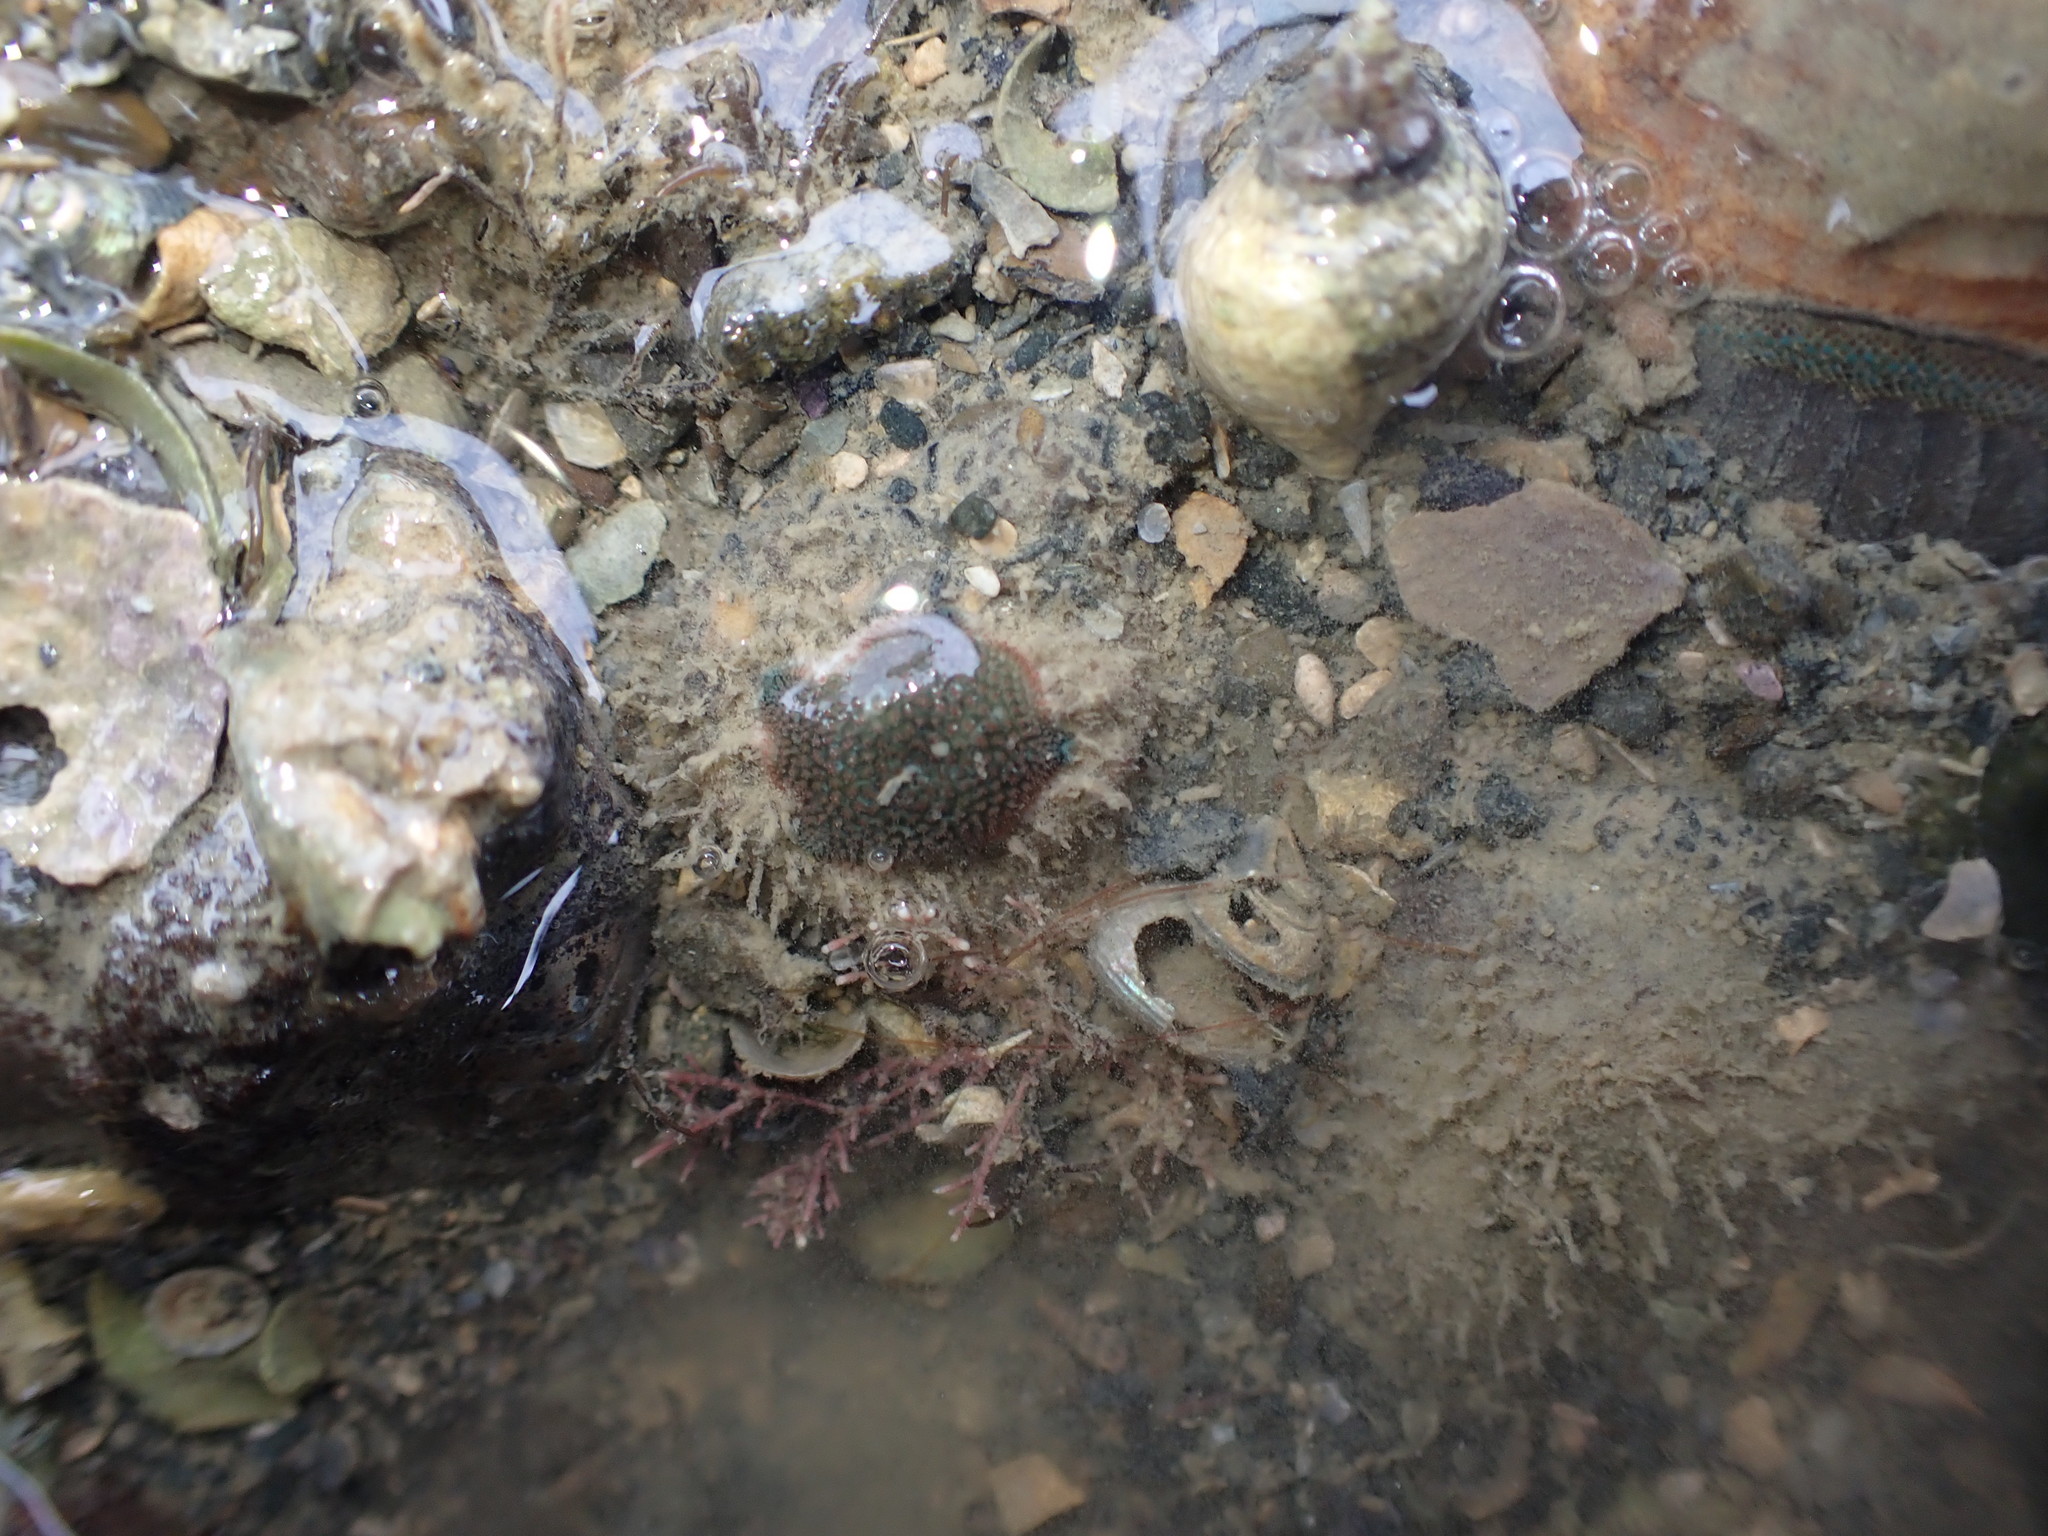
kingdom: Animalia
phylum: Echinodermata
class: Asteroidea
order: Valvatida
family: Asterinidae
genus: Patiriella
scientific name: Patiriella regularis
